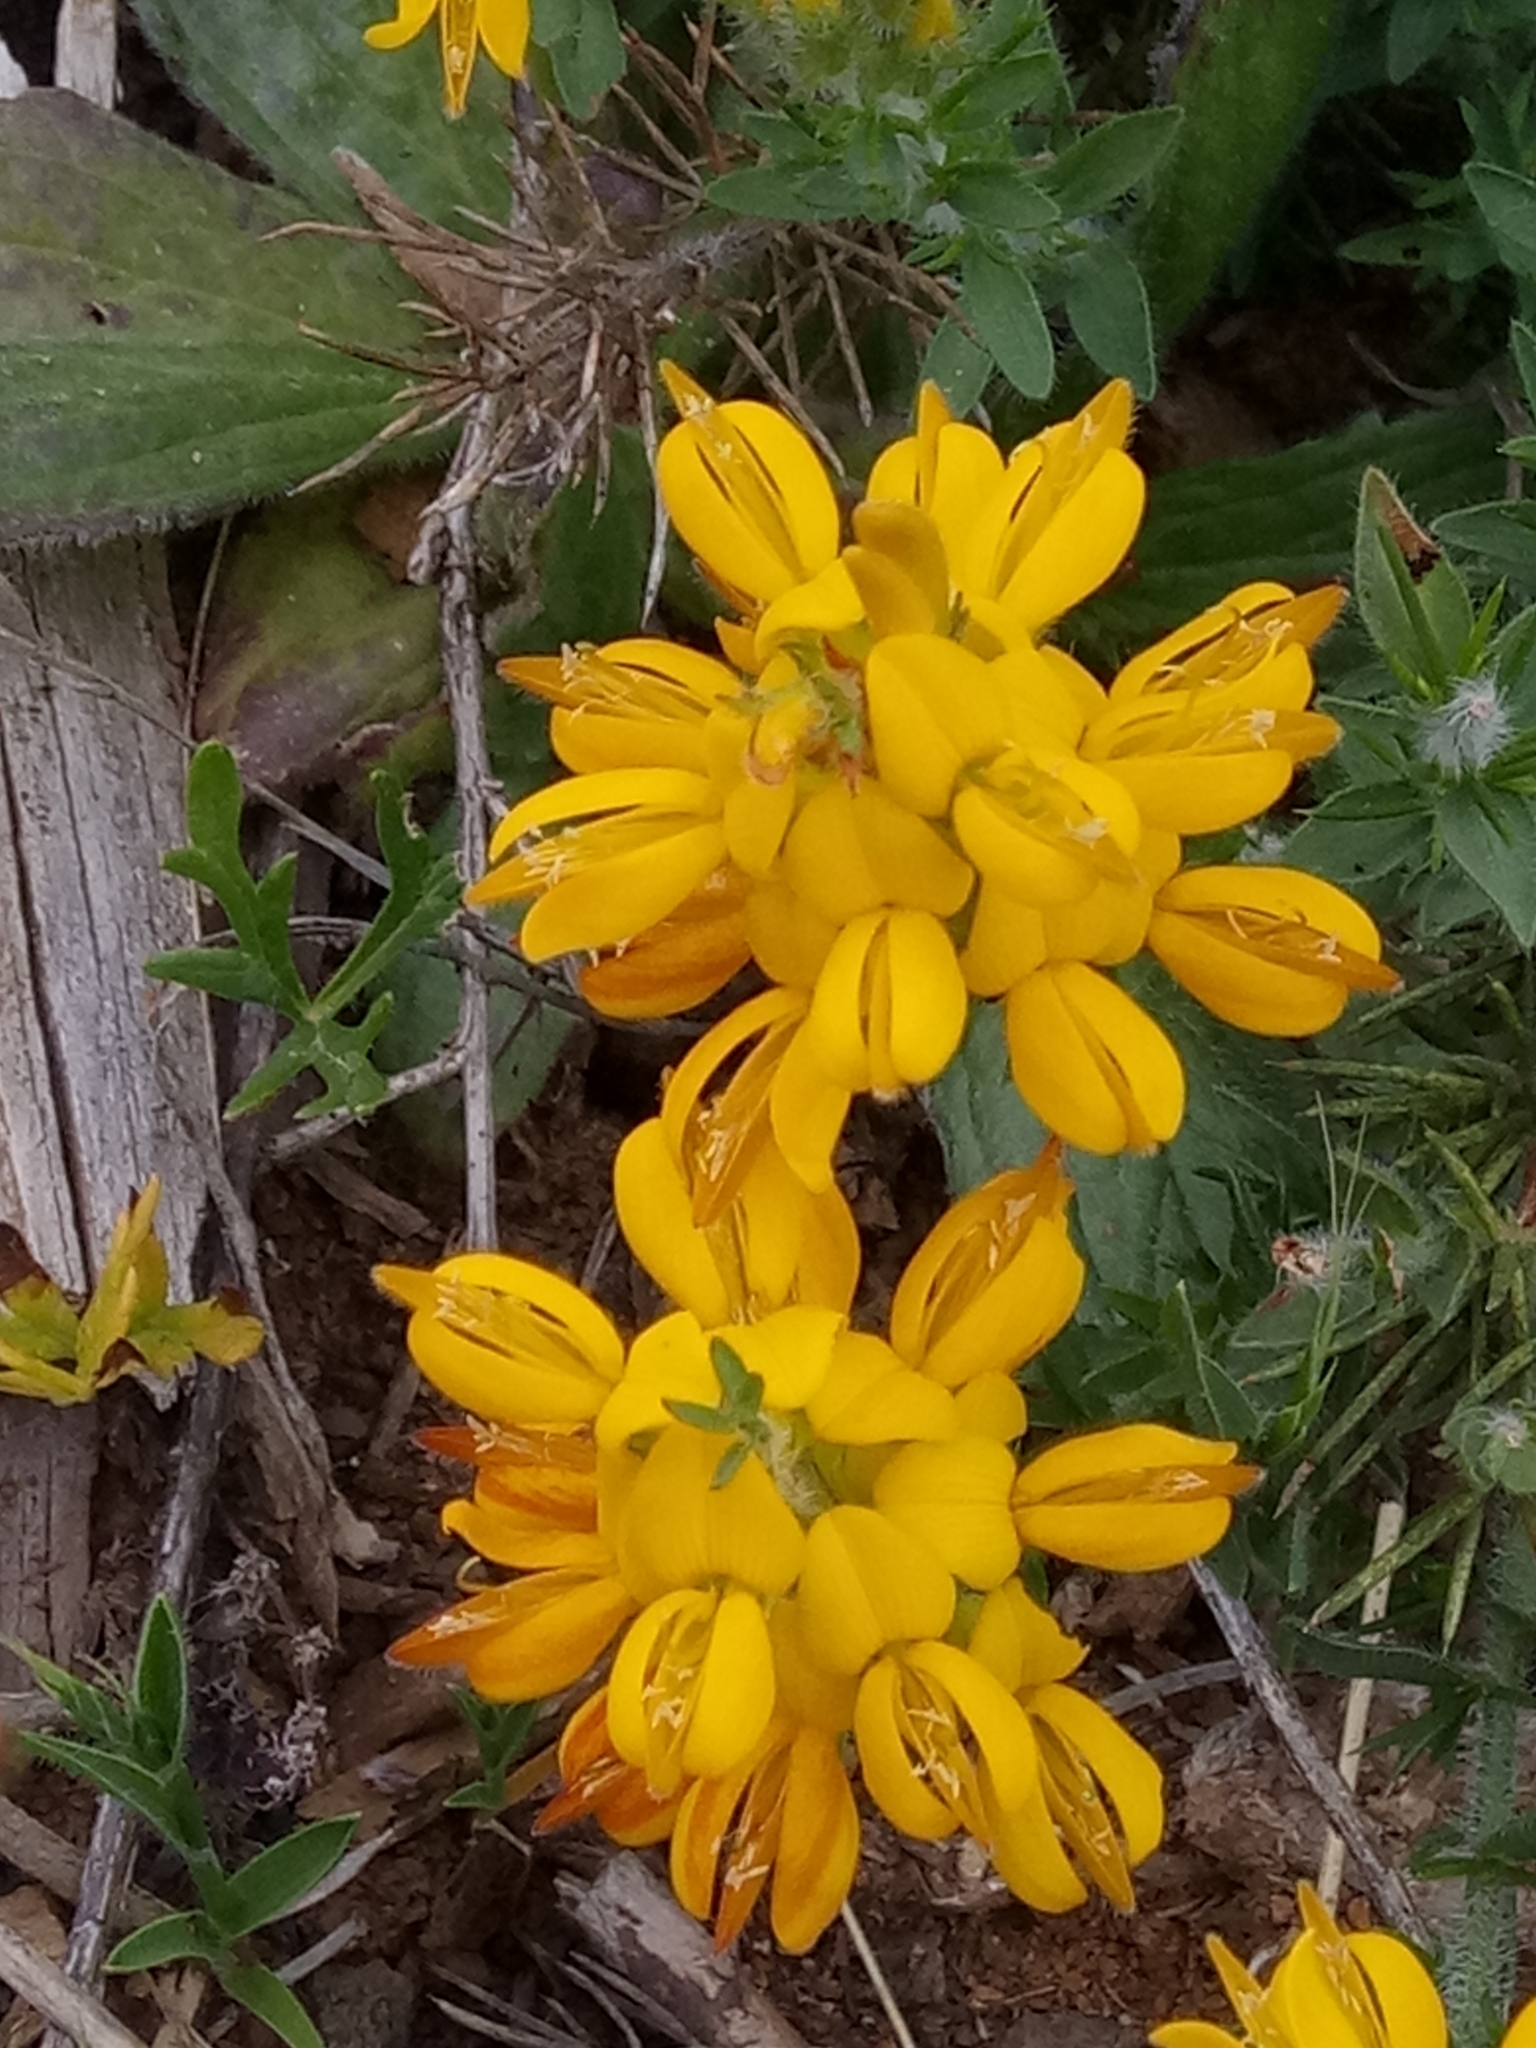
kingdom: Plantae
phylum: Tracheophyta
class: Magnoliopsida
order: Fabales
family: Fabaceae
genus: Genista
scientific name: Genista ulicina
